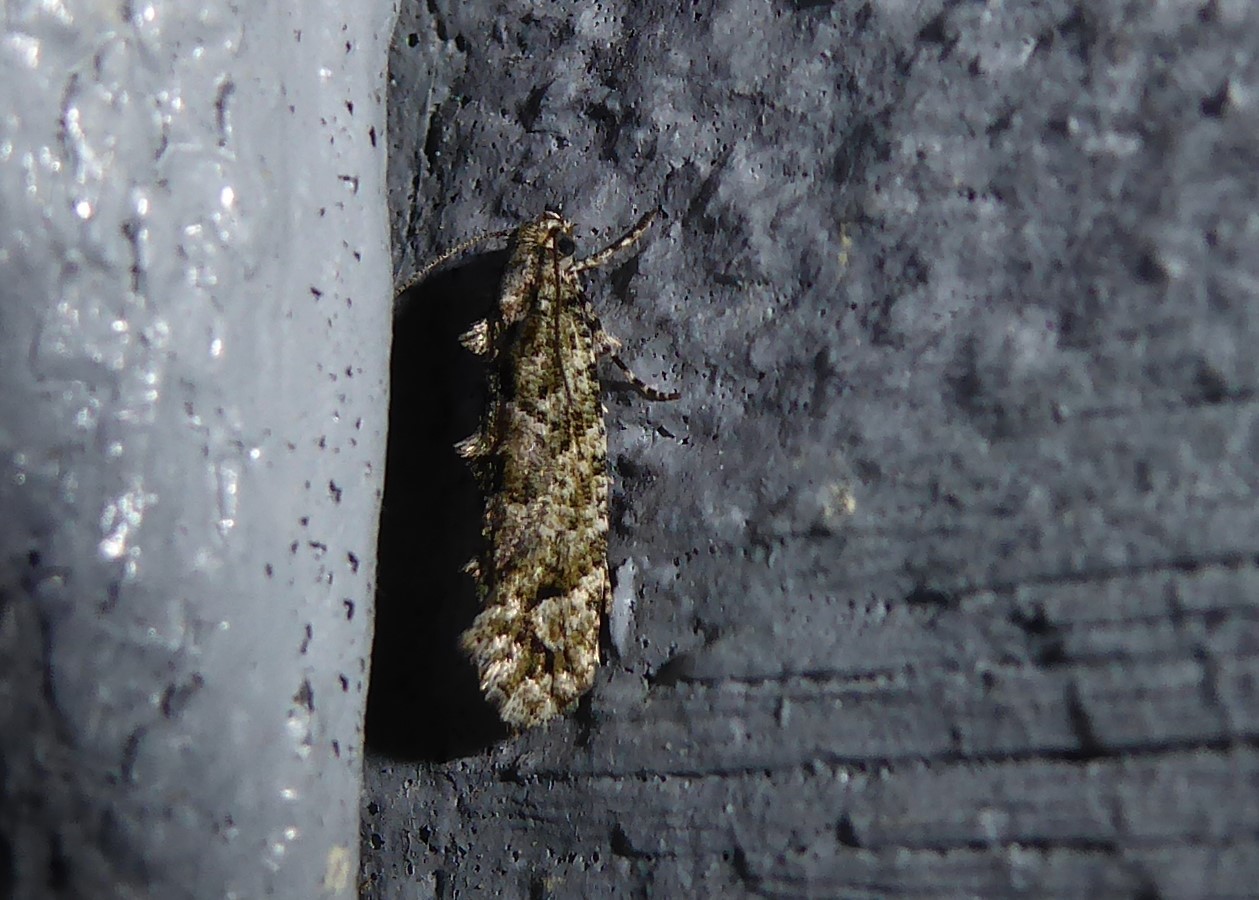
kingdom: Animalia
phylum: Arthropoda
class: Insecta
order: Lepidoptera
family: Tineidae
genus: Lysiphragma
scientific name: Lysiphragma howesii
